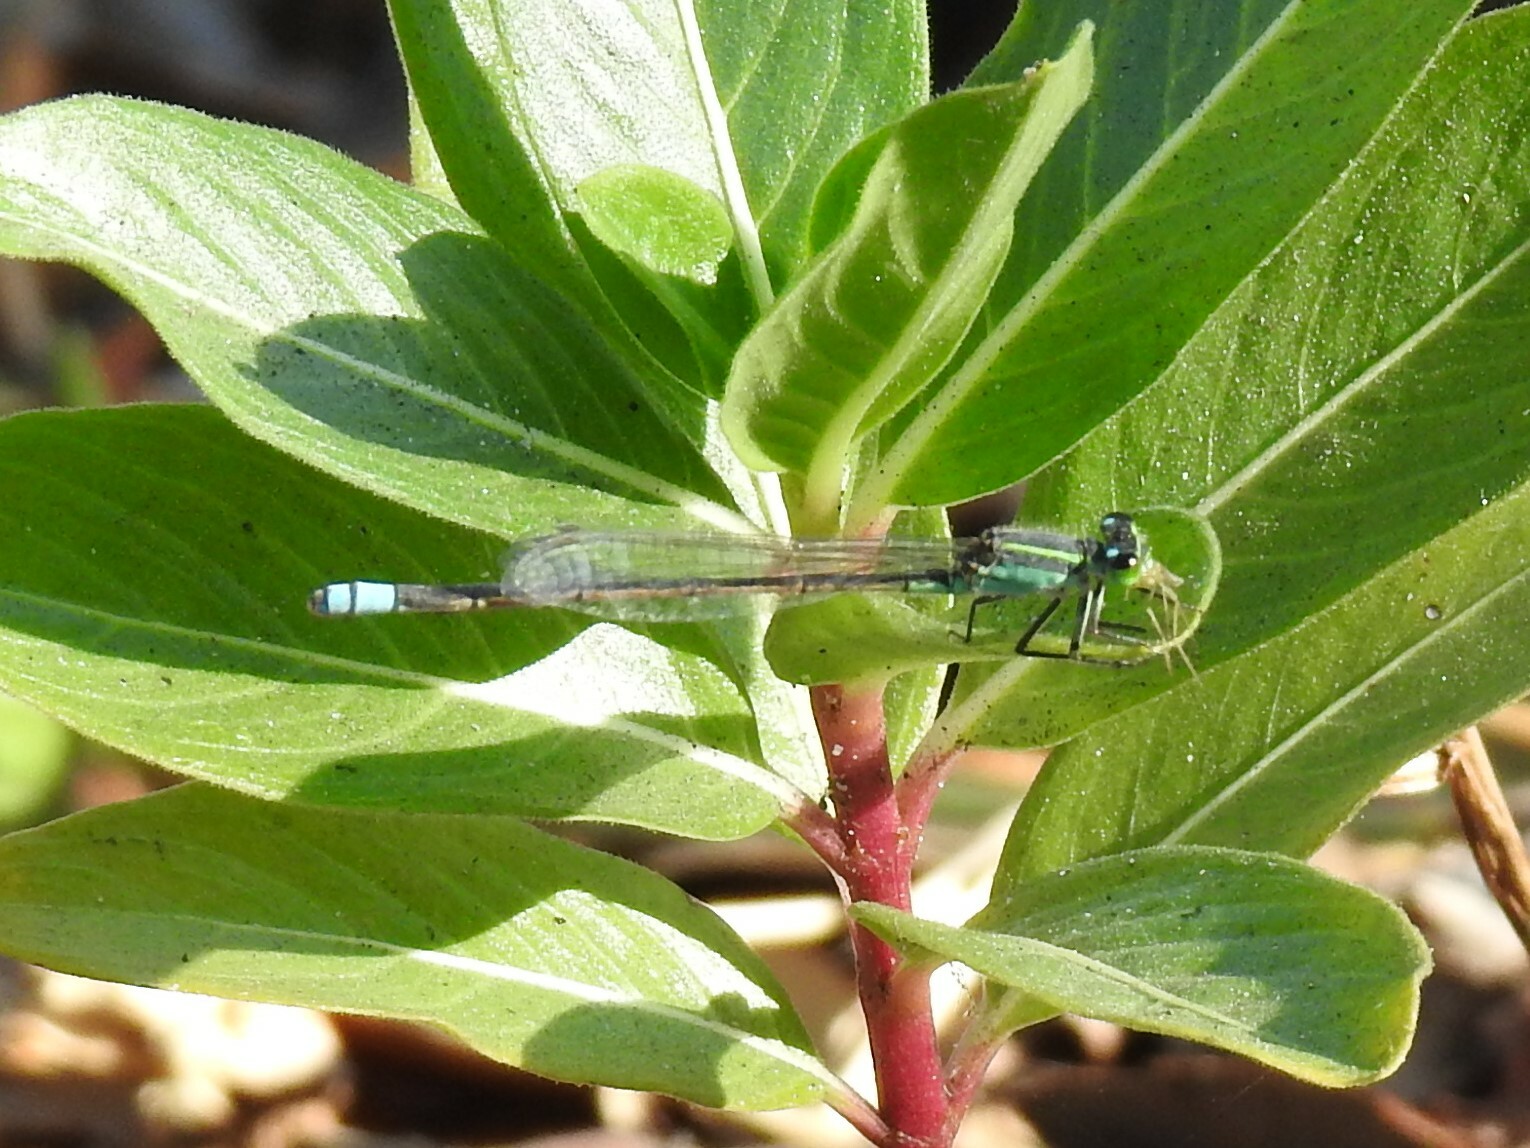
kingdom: Animalia
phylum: Arthropoda
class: Insecta
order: Odonata
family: Coenagrionidae
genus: Ischnura
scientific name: Ischnura ramburii
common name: Rambur's forktail
